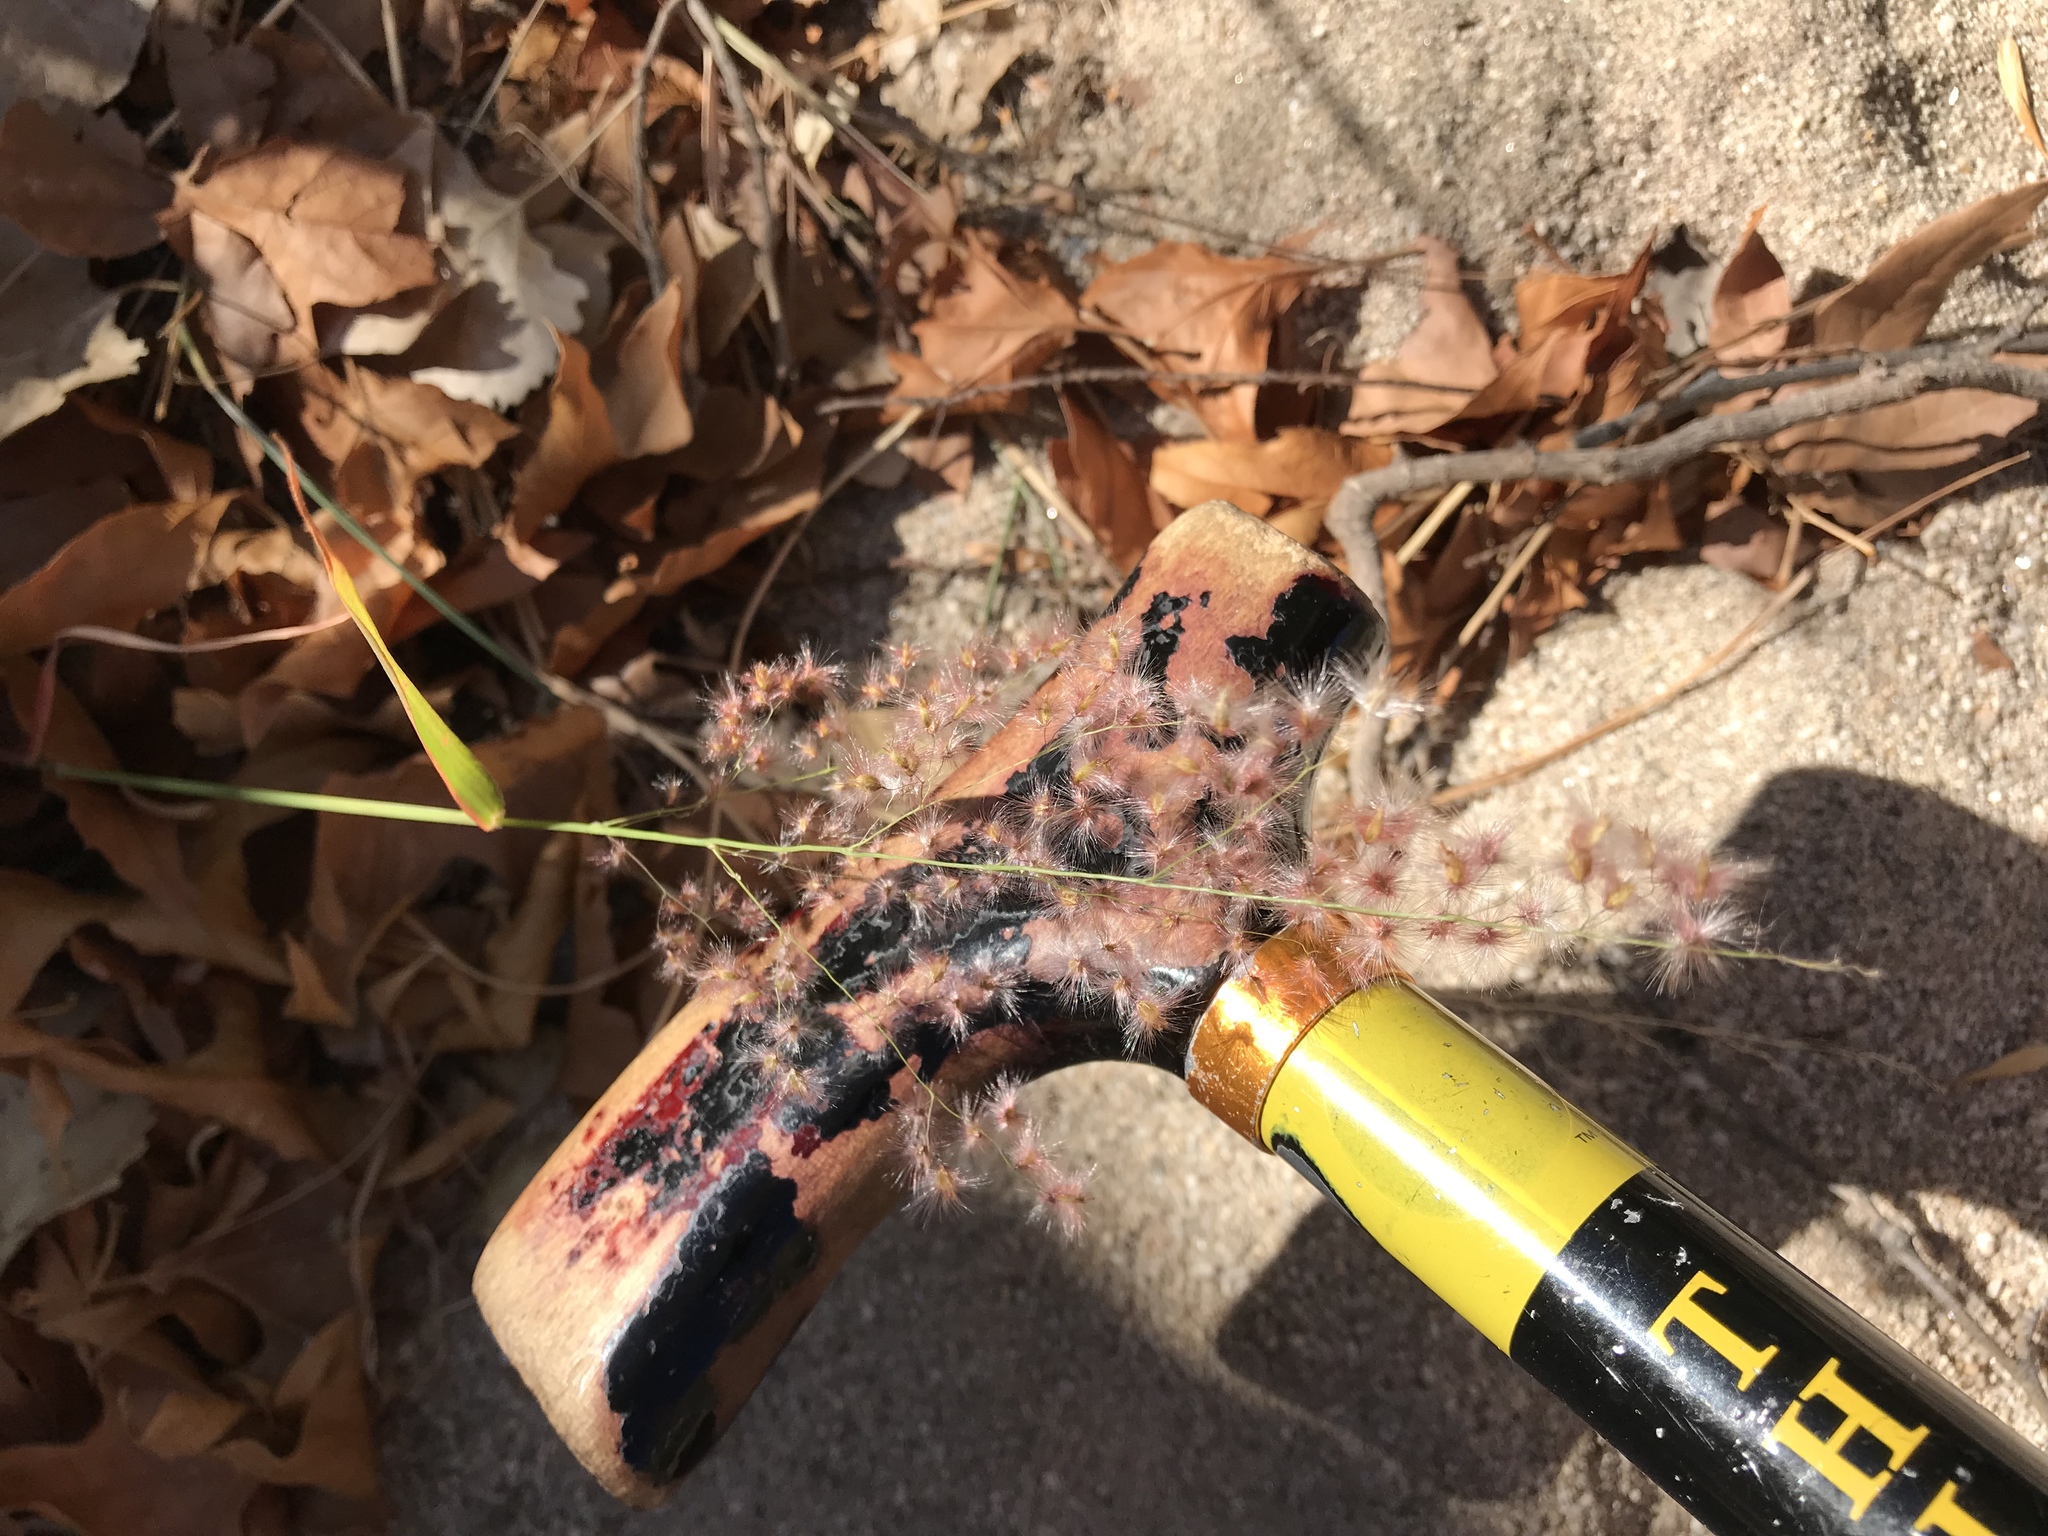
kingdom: Plantae
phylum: Tracheophyta
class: Liliopsida
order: Poales
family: Poaceae
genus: Melinis
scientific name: Melinis repens
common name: Rose natal grass
